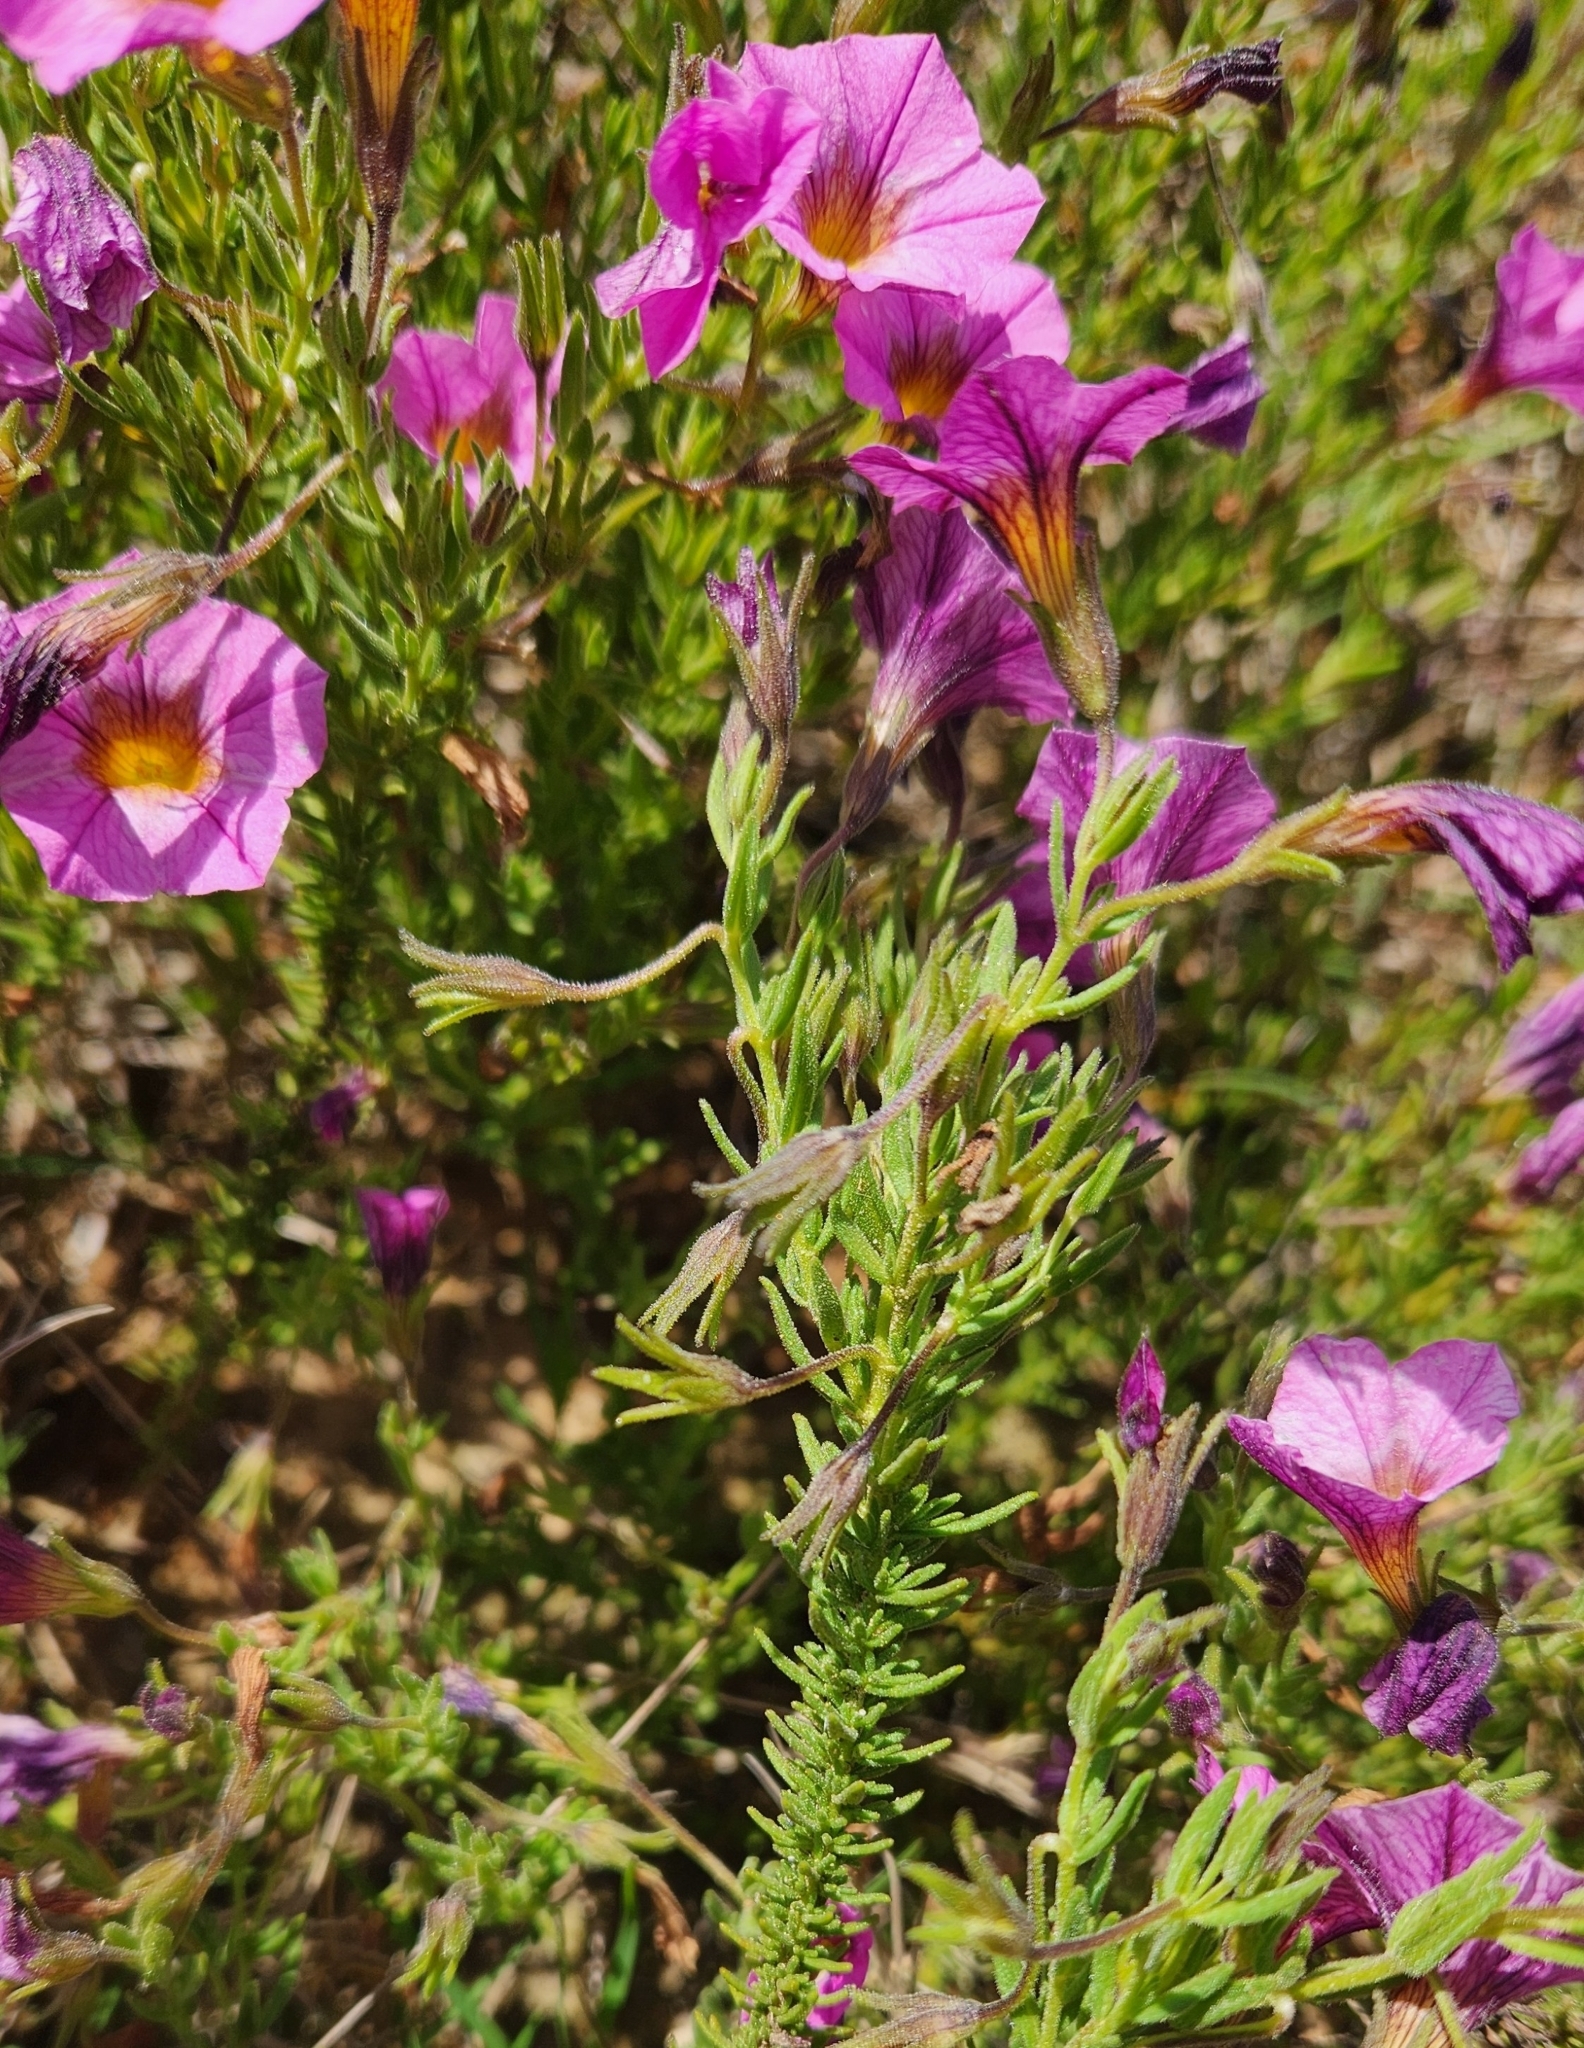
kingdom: Plantae
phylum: Tracheophyta
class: Magnoliopsida
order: Solanales
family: Solanaceae
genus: Calibrachoa
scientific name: Calibrachoa humilis
